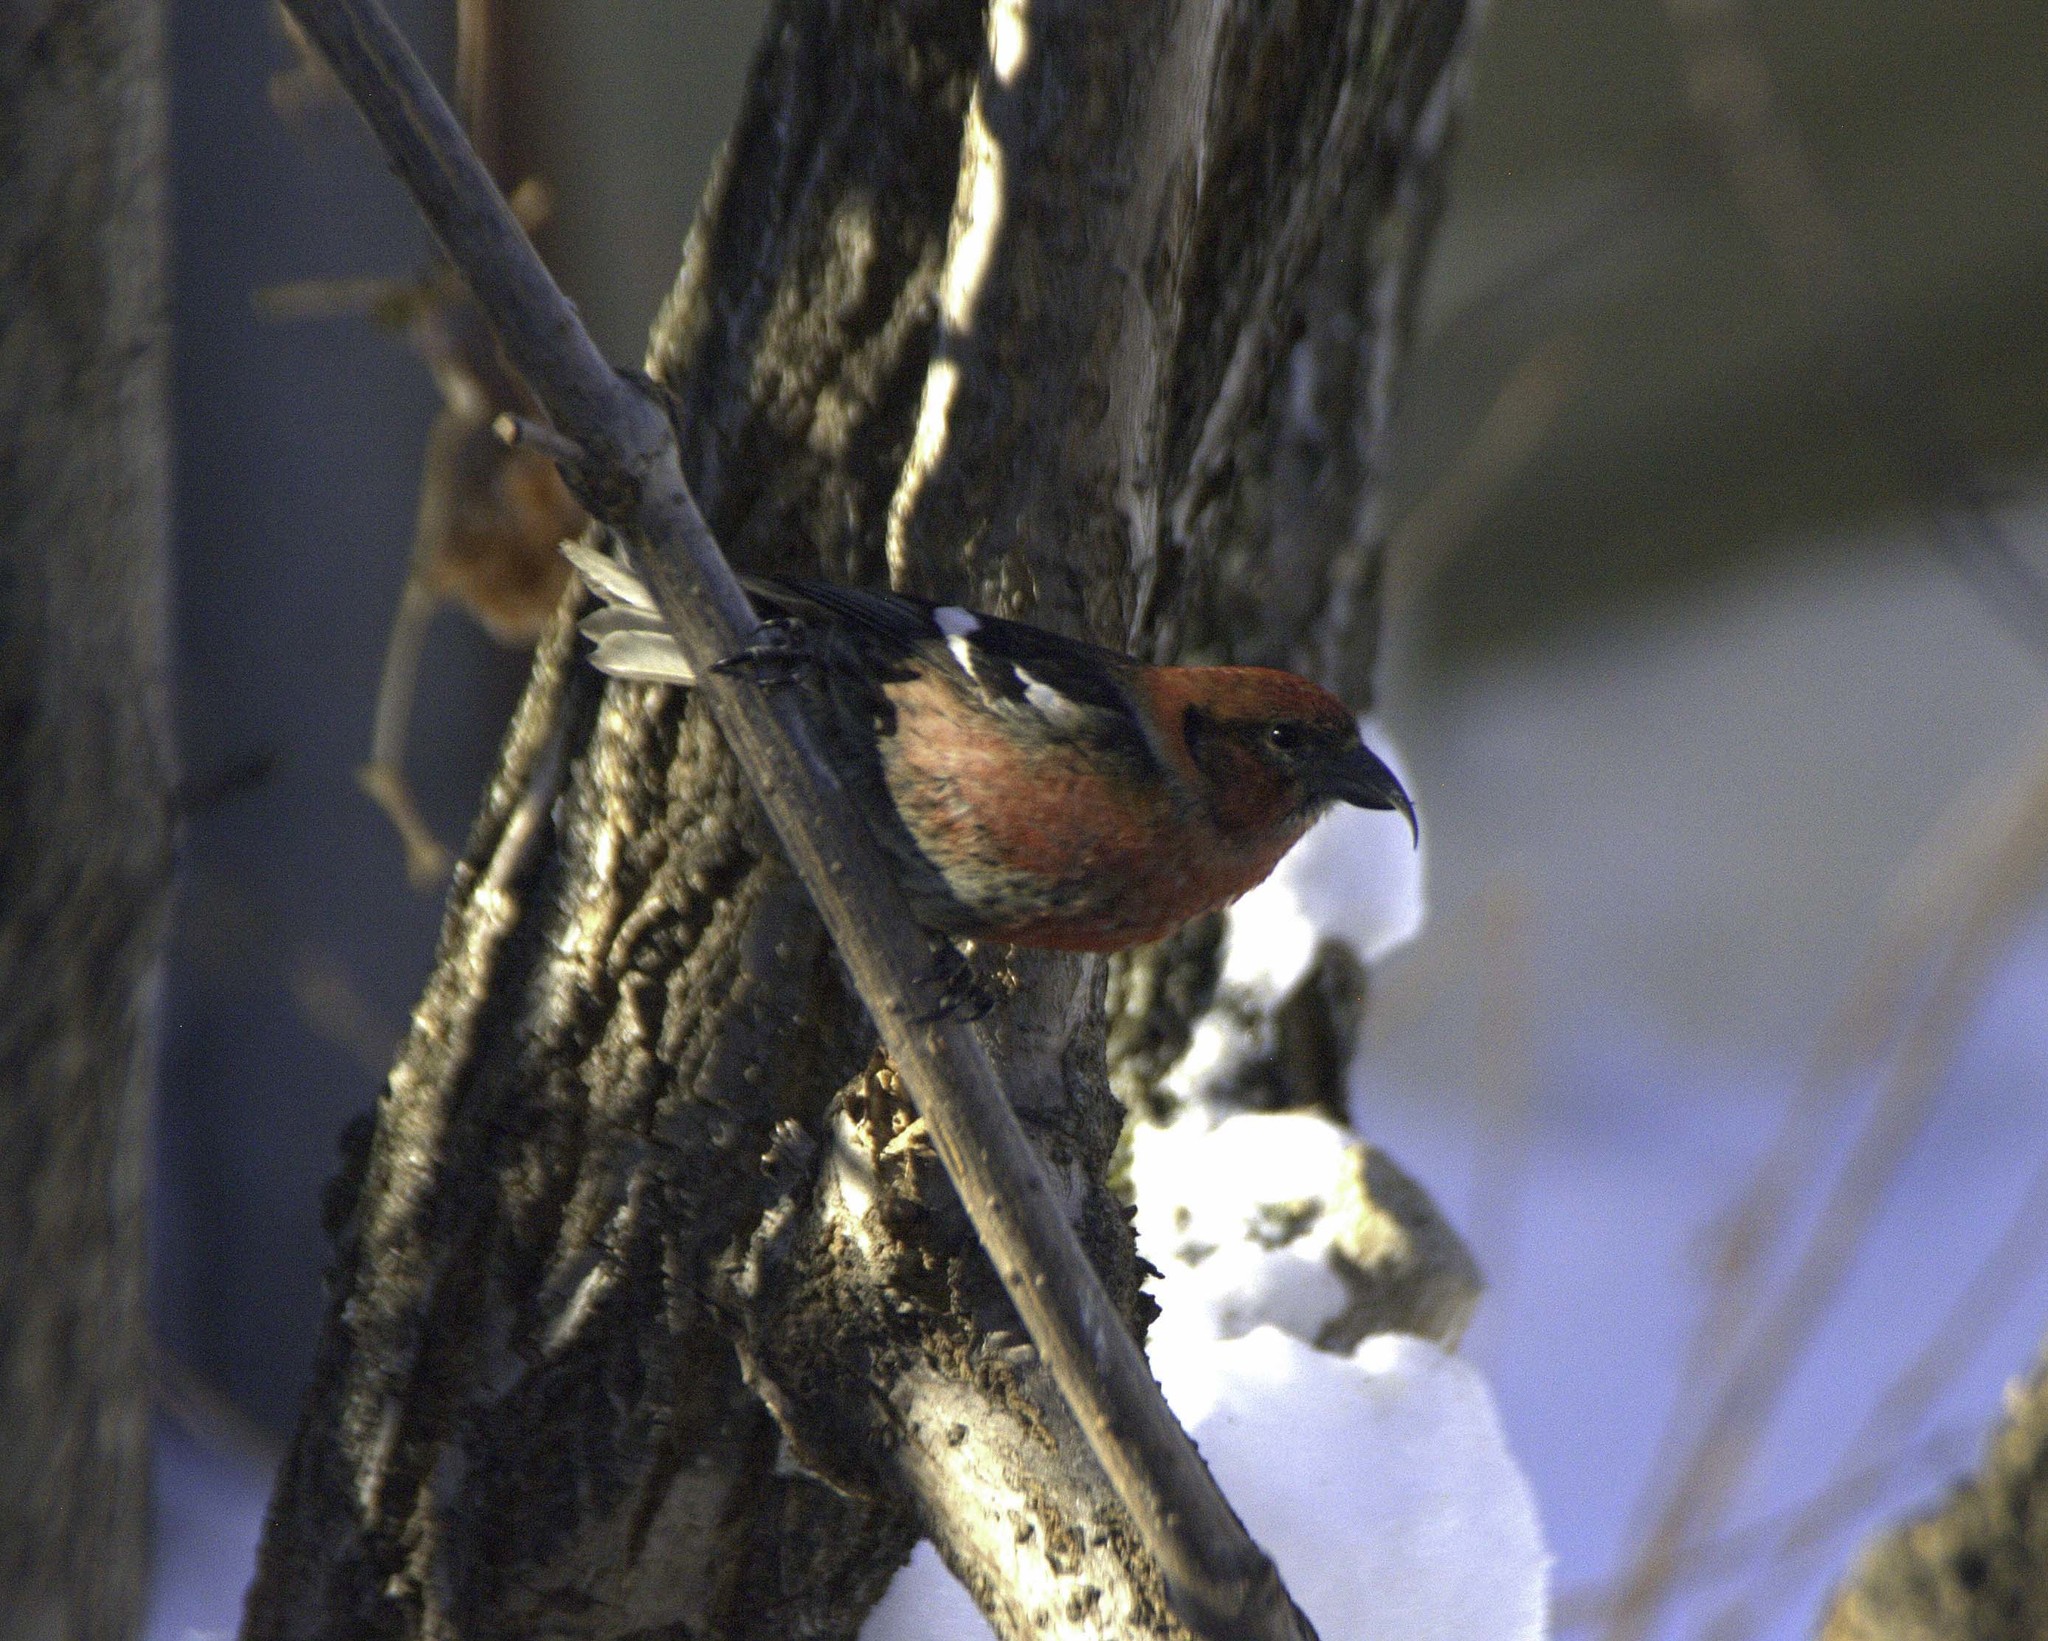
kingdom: Animalia
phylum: Chordata
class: Aves
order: Passeriformes
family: Fringillidae
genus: Loxia
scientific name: Loxia leucoptera
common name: Two-barred crossbill
